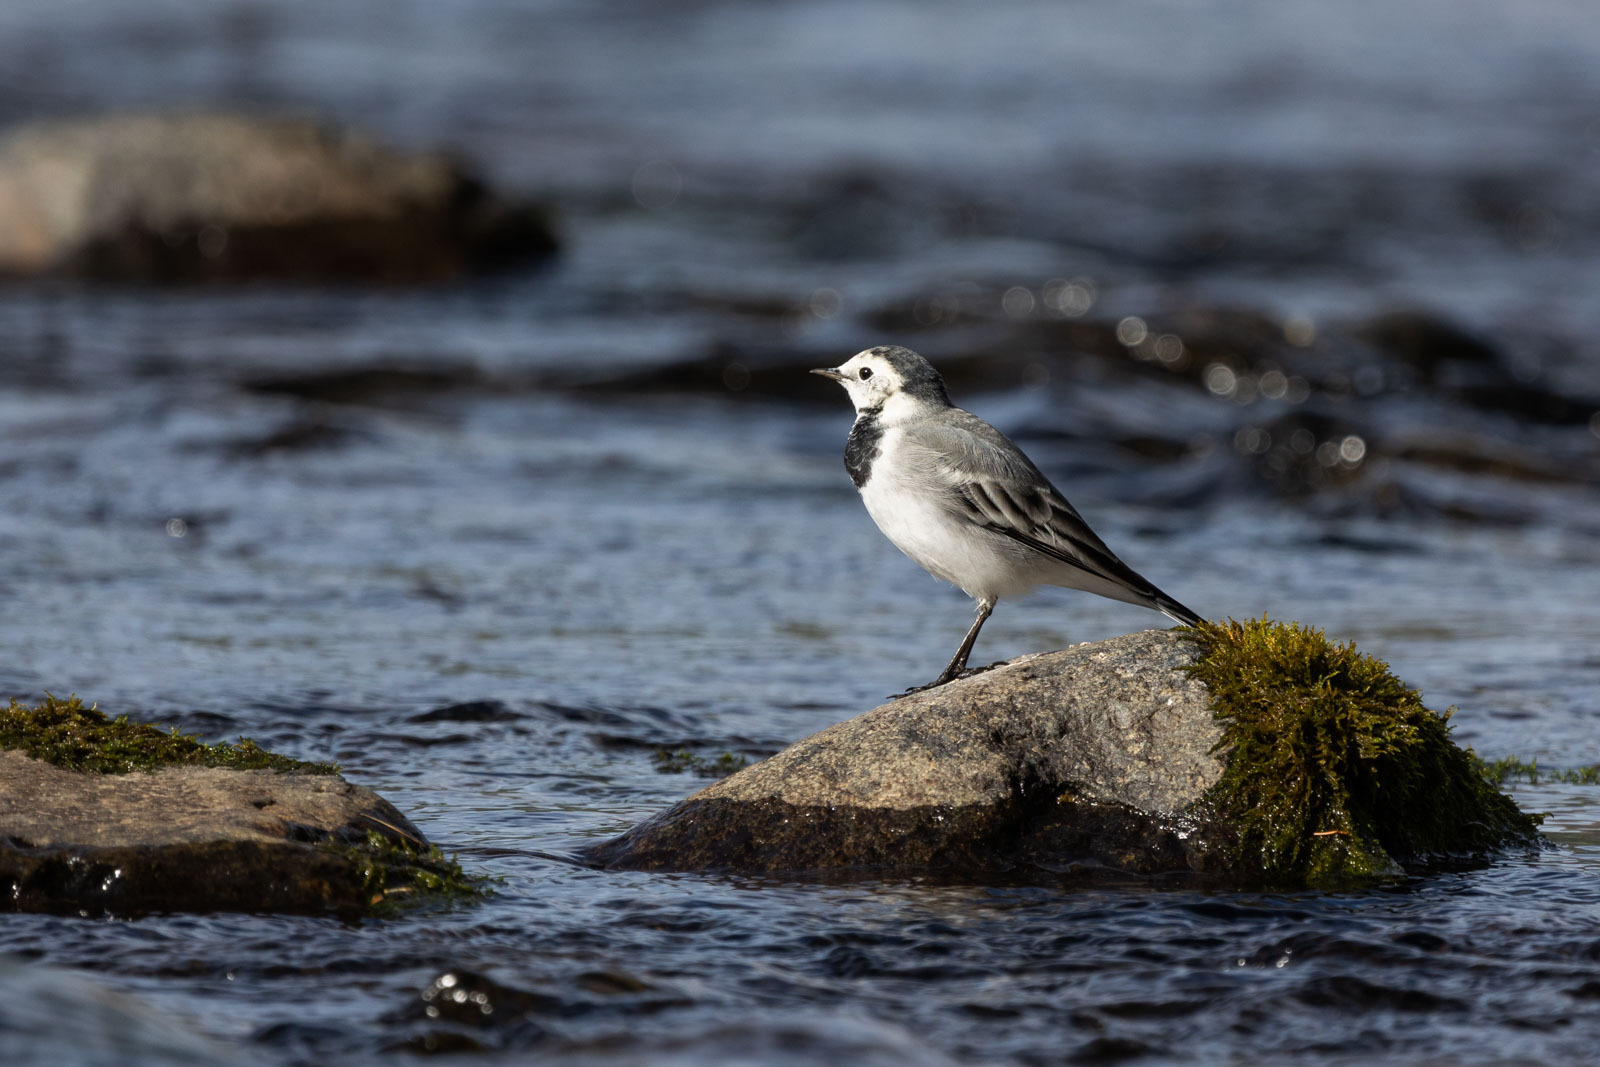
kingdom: Animalia
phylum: Chordata
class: Aves
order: Passeriformes
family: Motacillidae
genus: Motacilla
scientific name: Motacilla alba
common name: White wagtail
